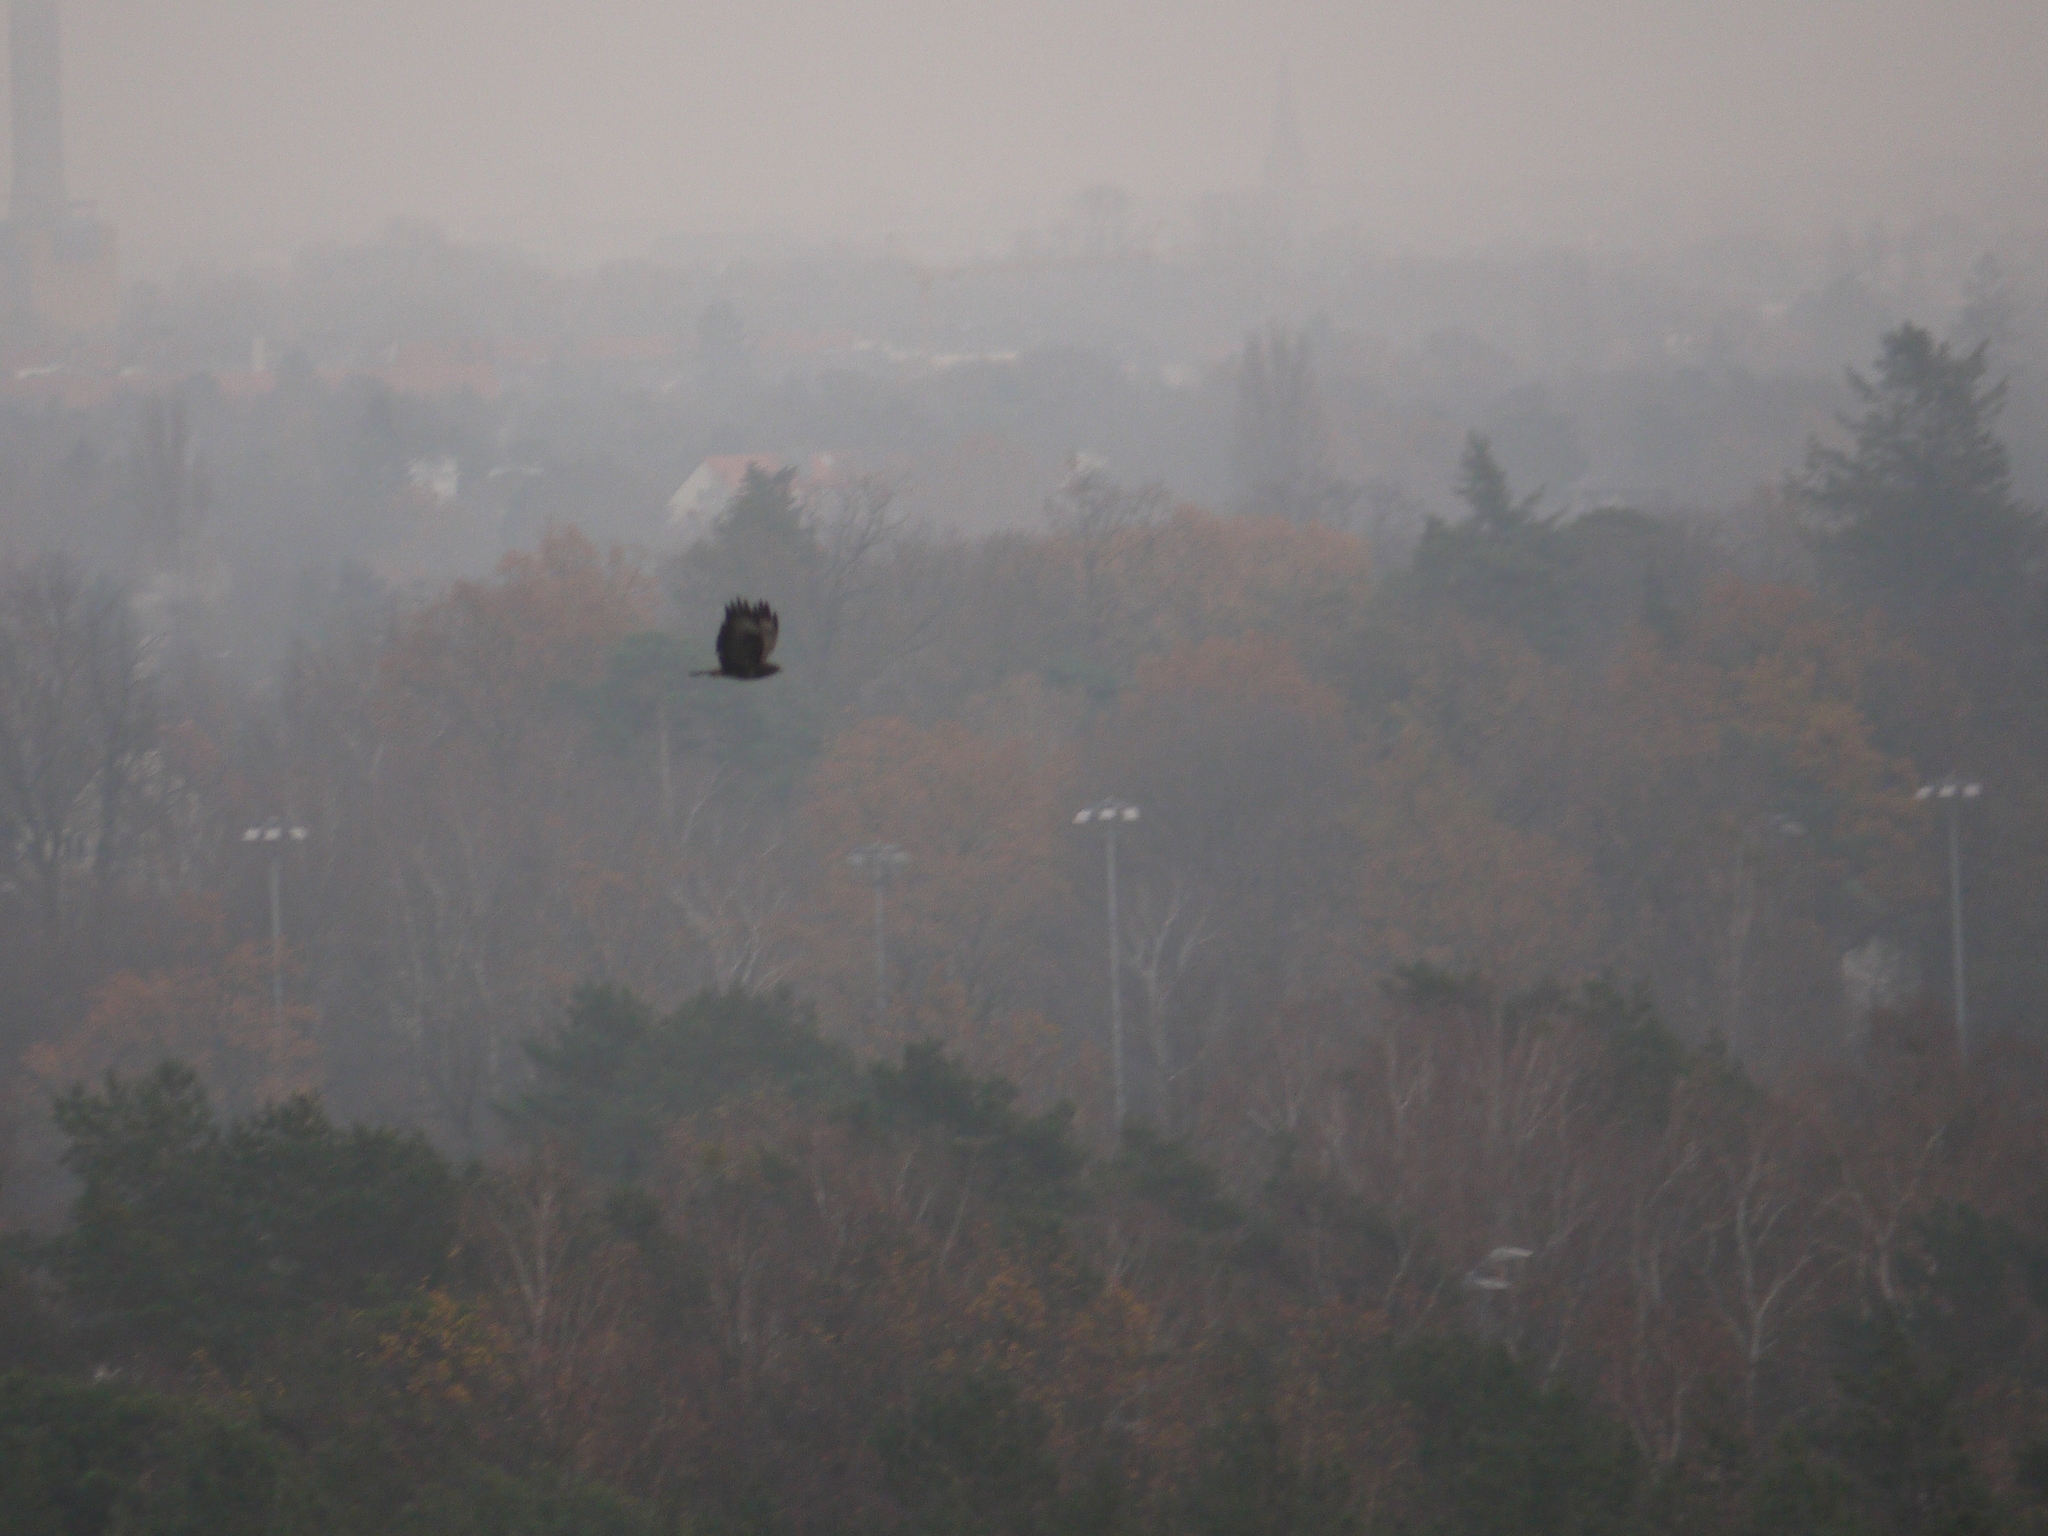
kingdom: Animalia
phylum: Chordata
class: Aves
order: Accipitriformes
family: Accipitridae
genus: Buteo
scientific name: Buteo buteo
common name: Common buzzard
